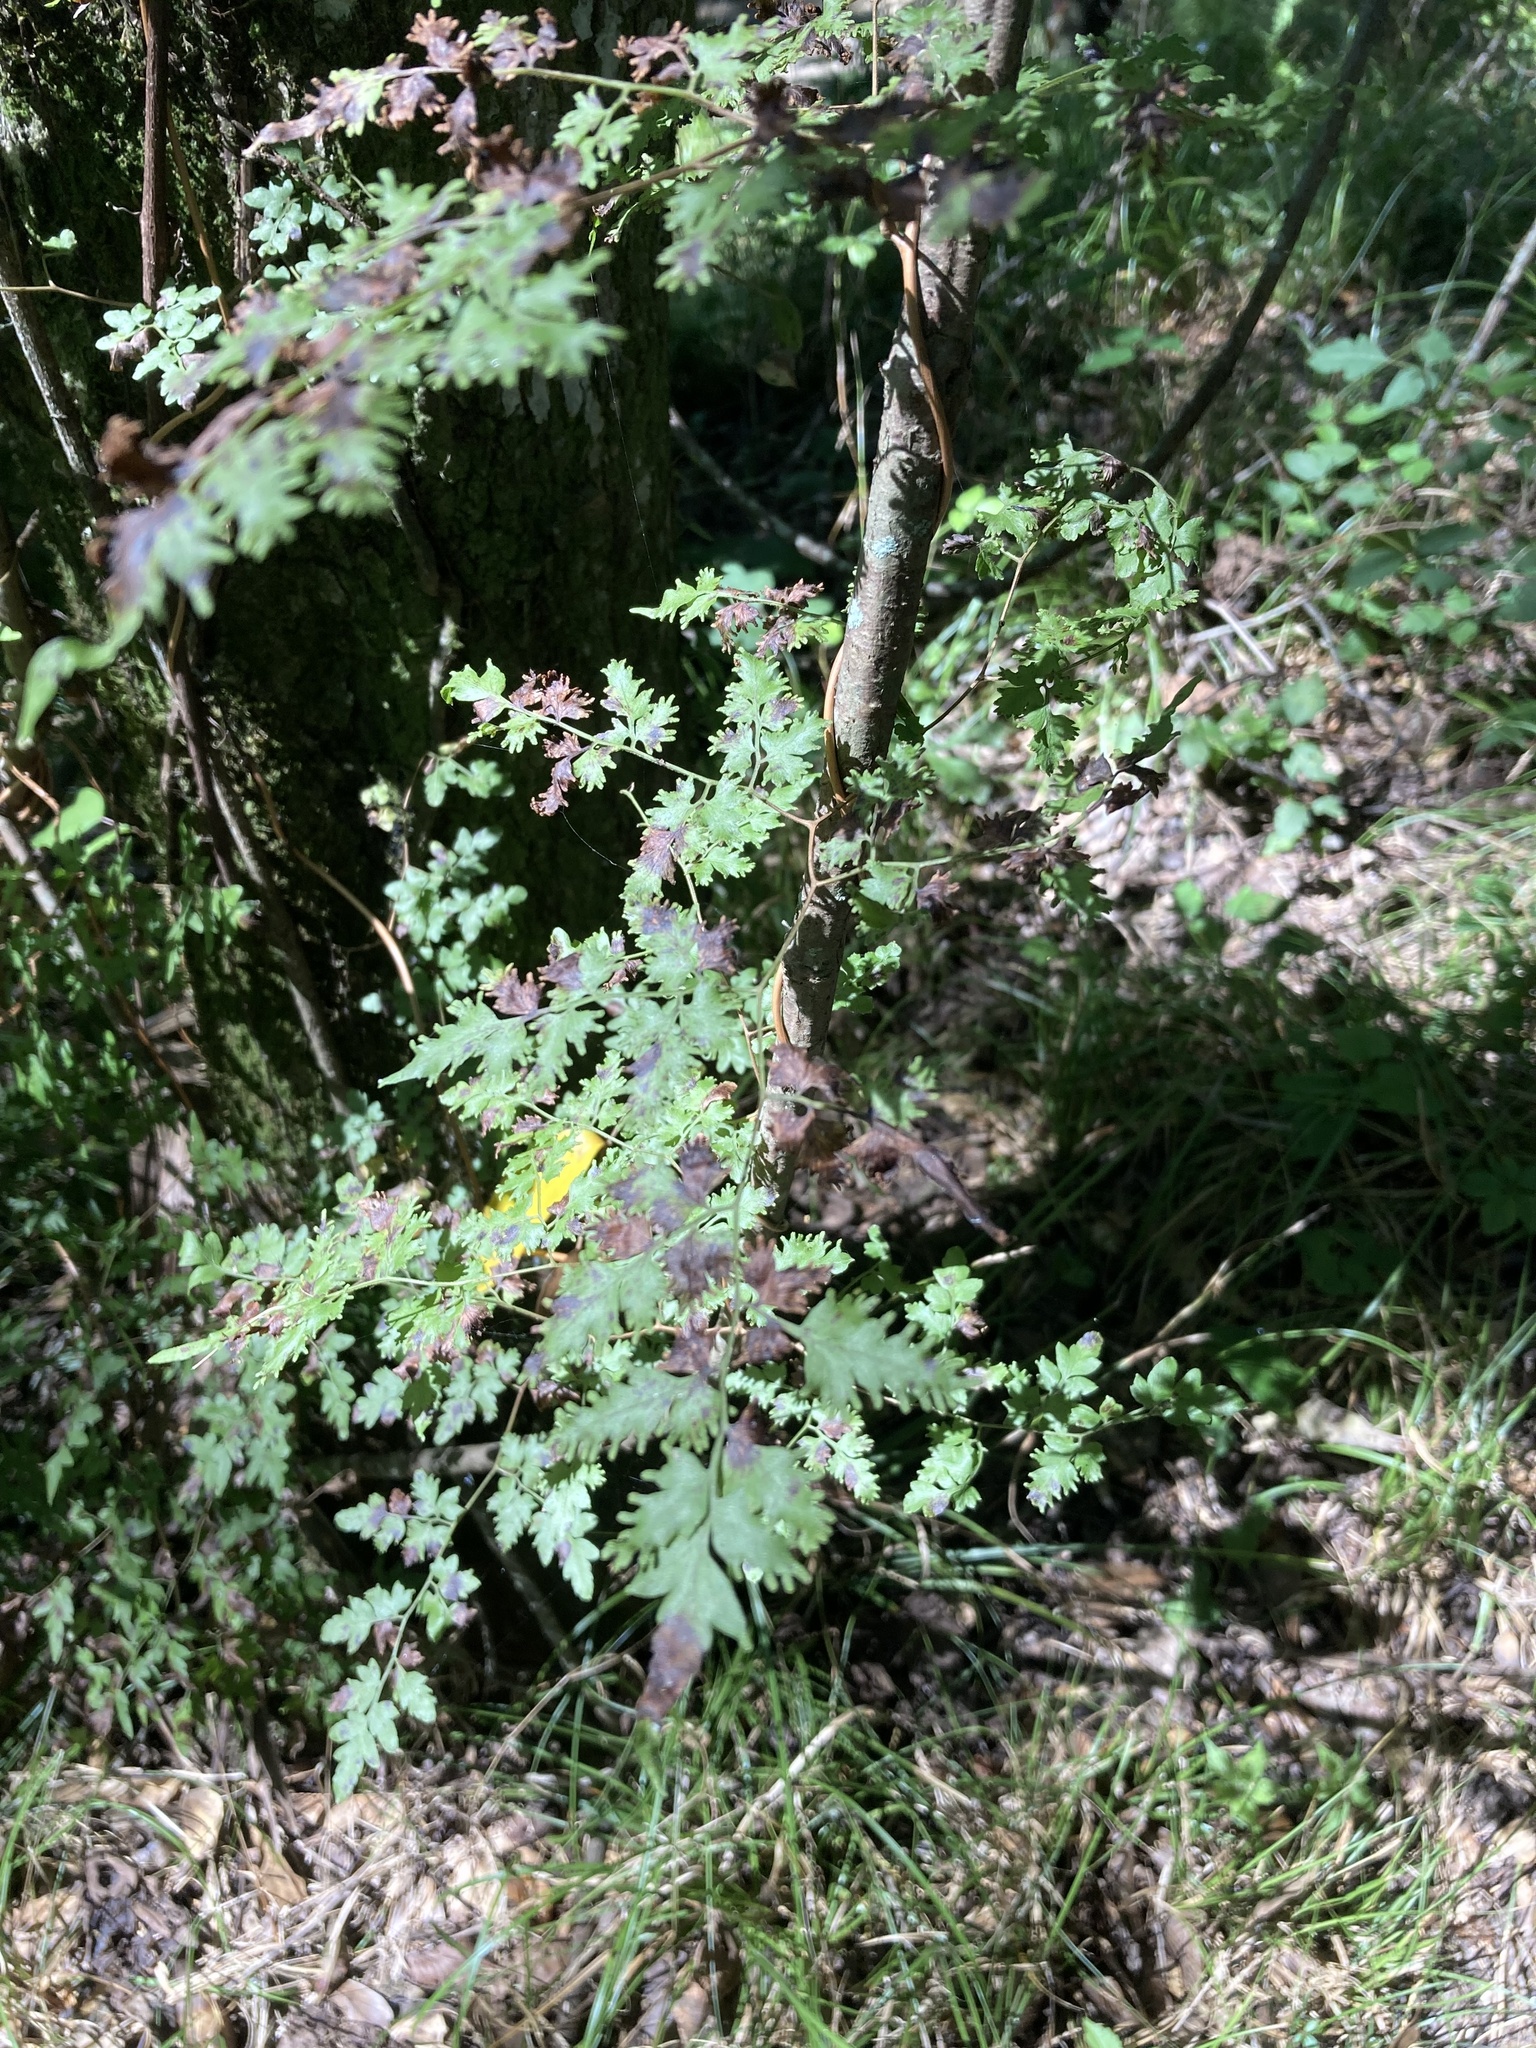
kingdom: Plantae
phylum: Tracheophyta
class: Polypodiopsida
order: Schizaeales
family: Lygodiaceae
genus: Lygodium
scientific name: Lygodium japonicum
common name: Japanese climbing fern
